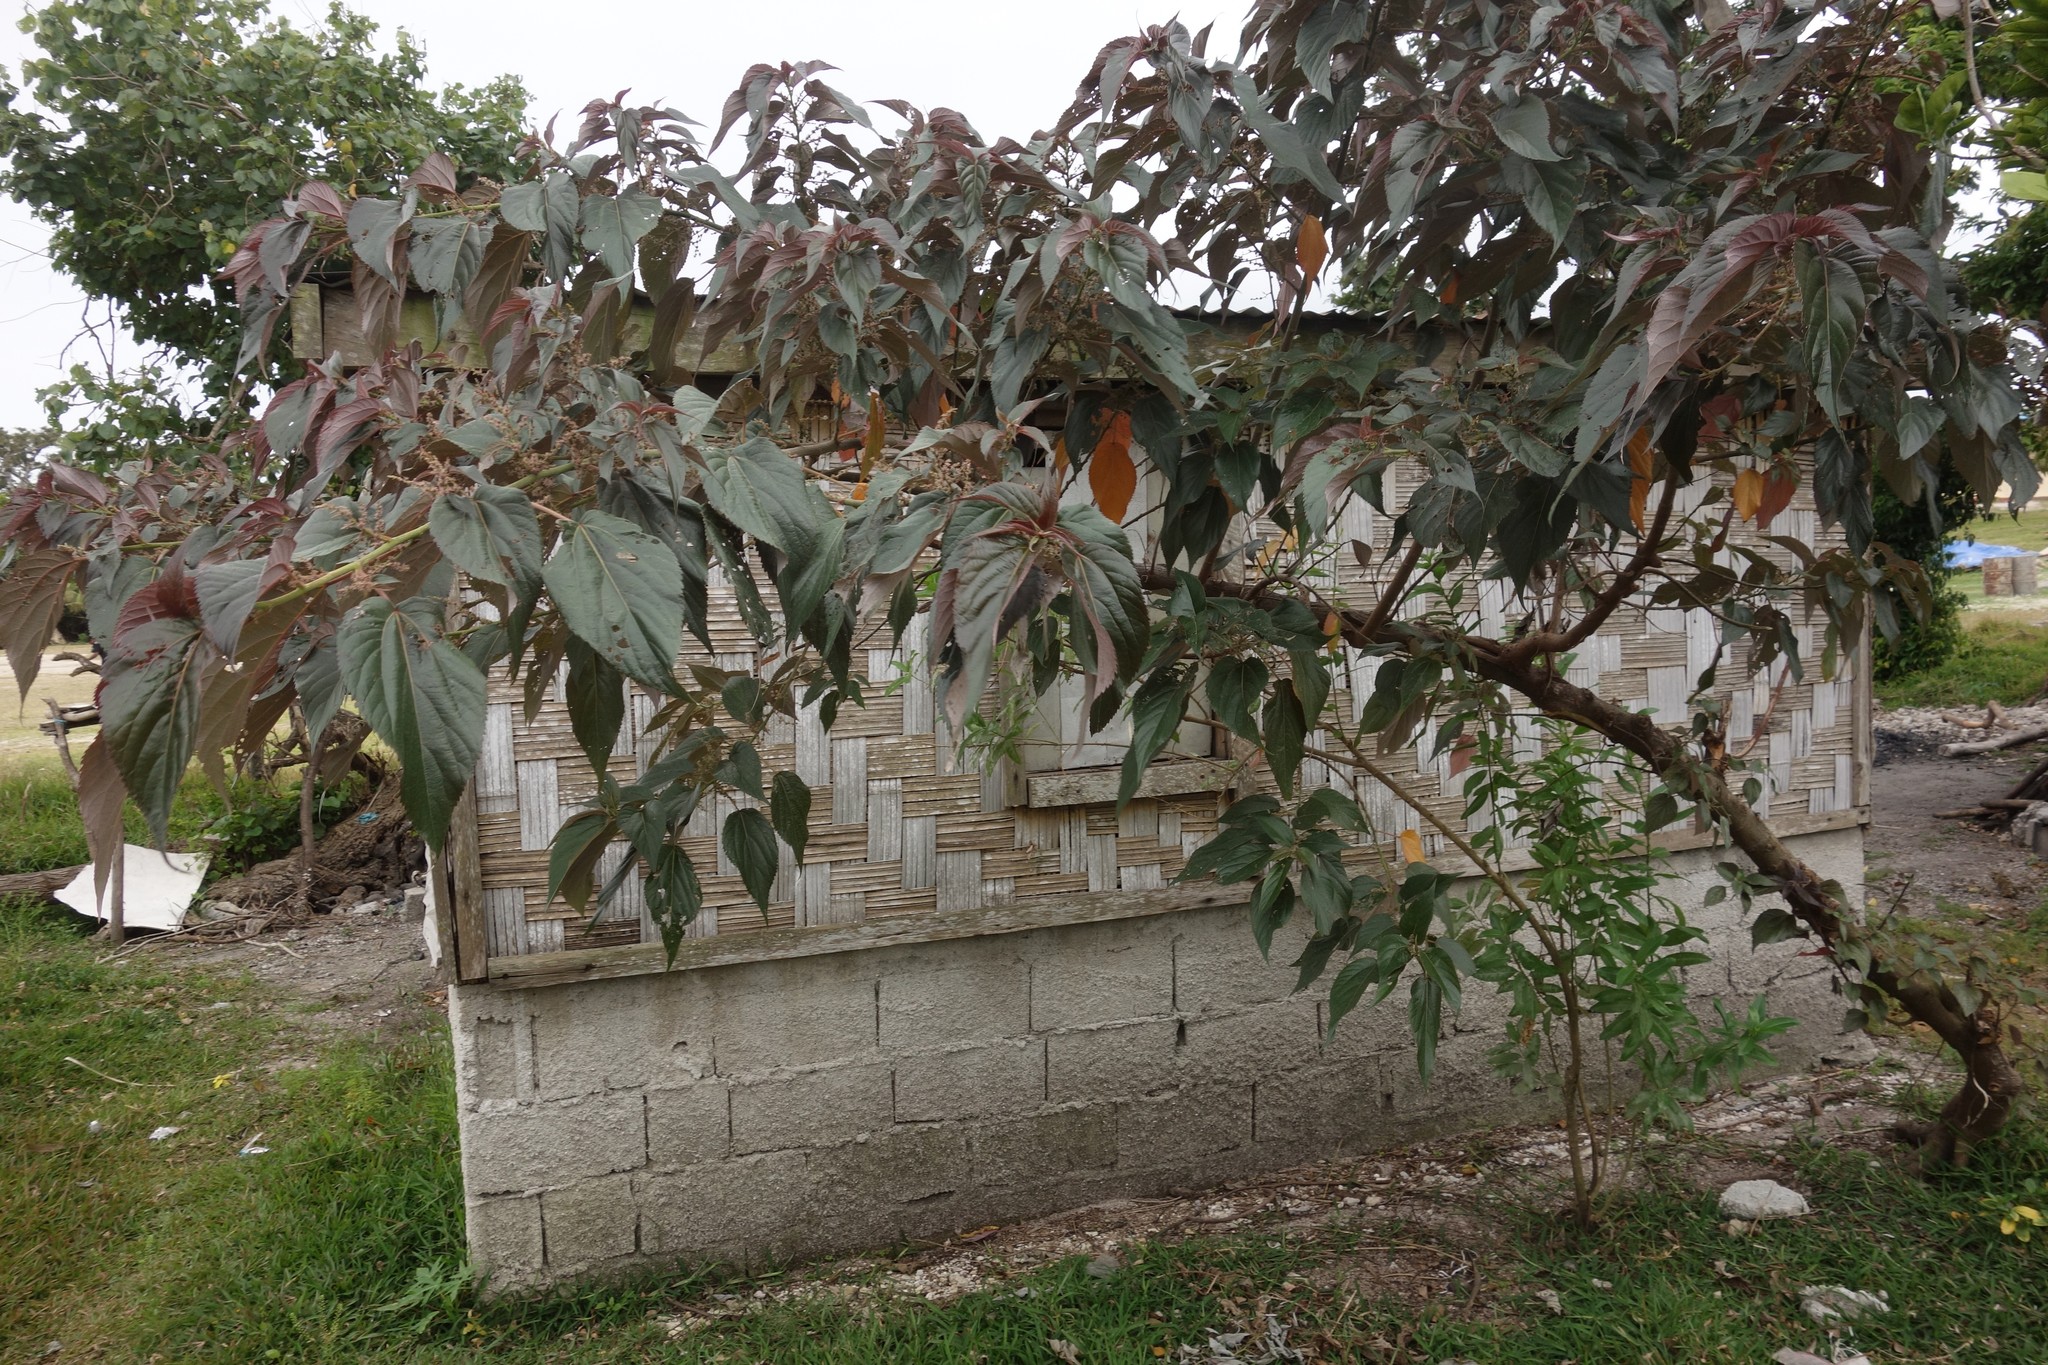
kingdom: Plantae
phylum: Tracheophyta
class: Magnoliopsida
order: Rosales
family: Urticaceae
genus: Pipturus
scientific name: Pipturus argenteus
